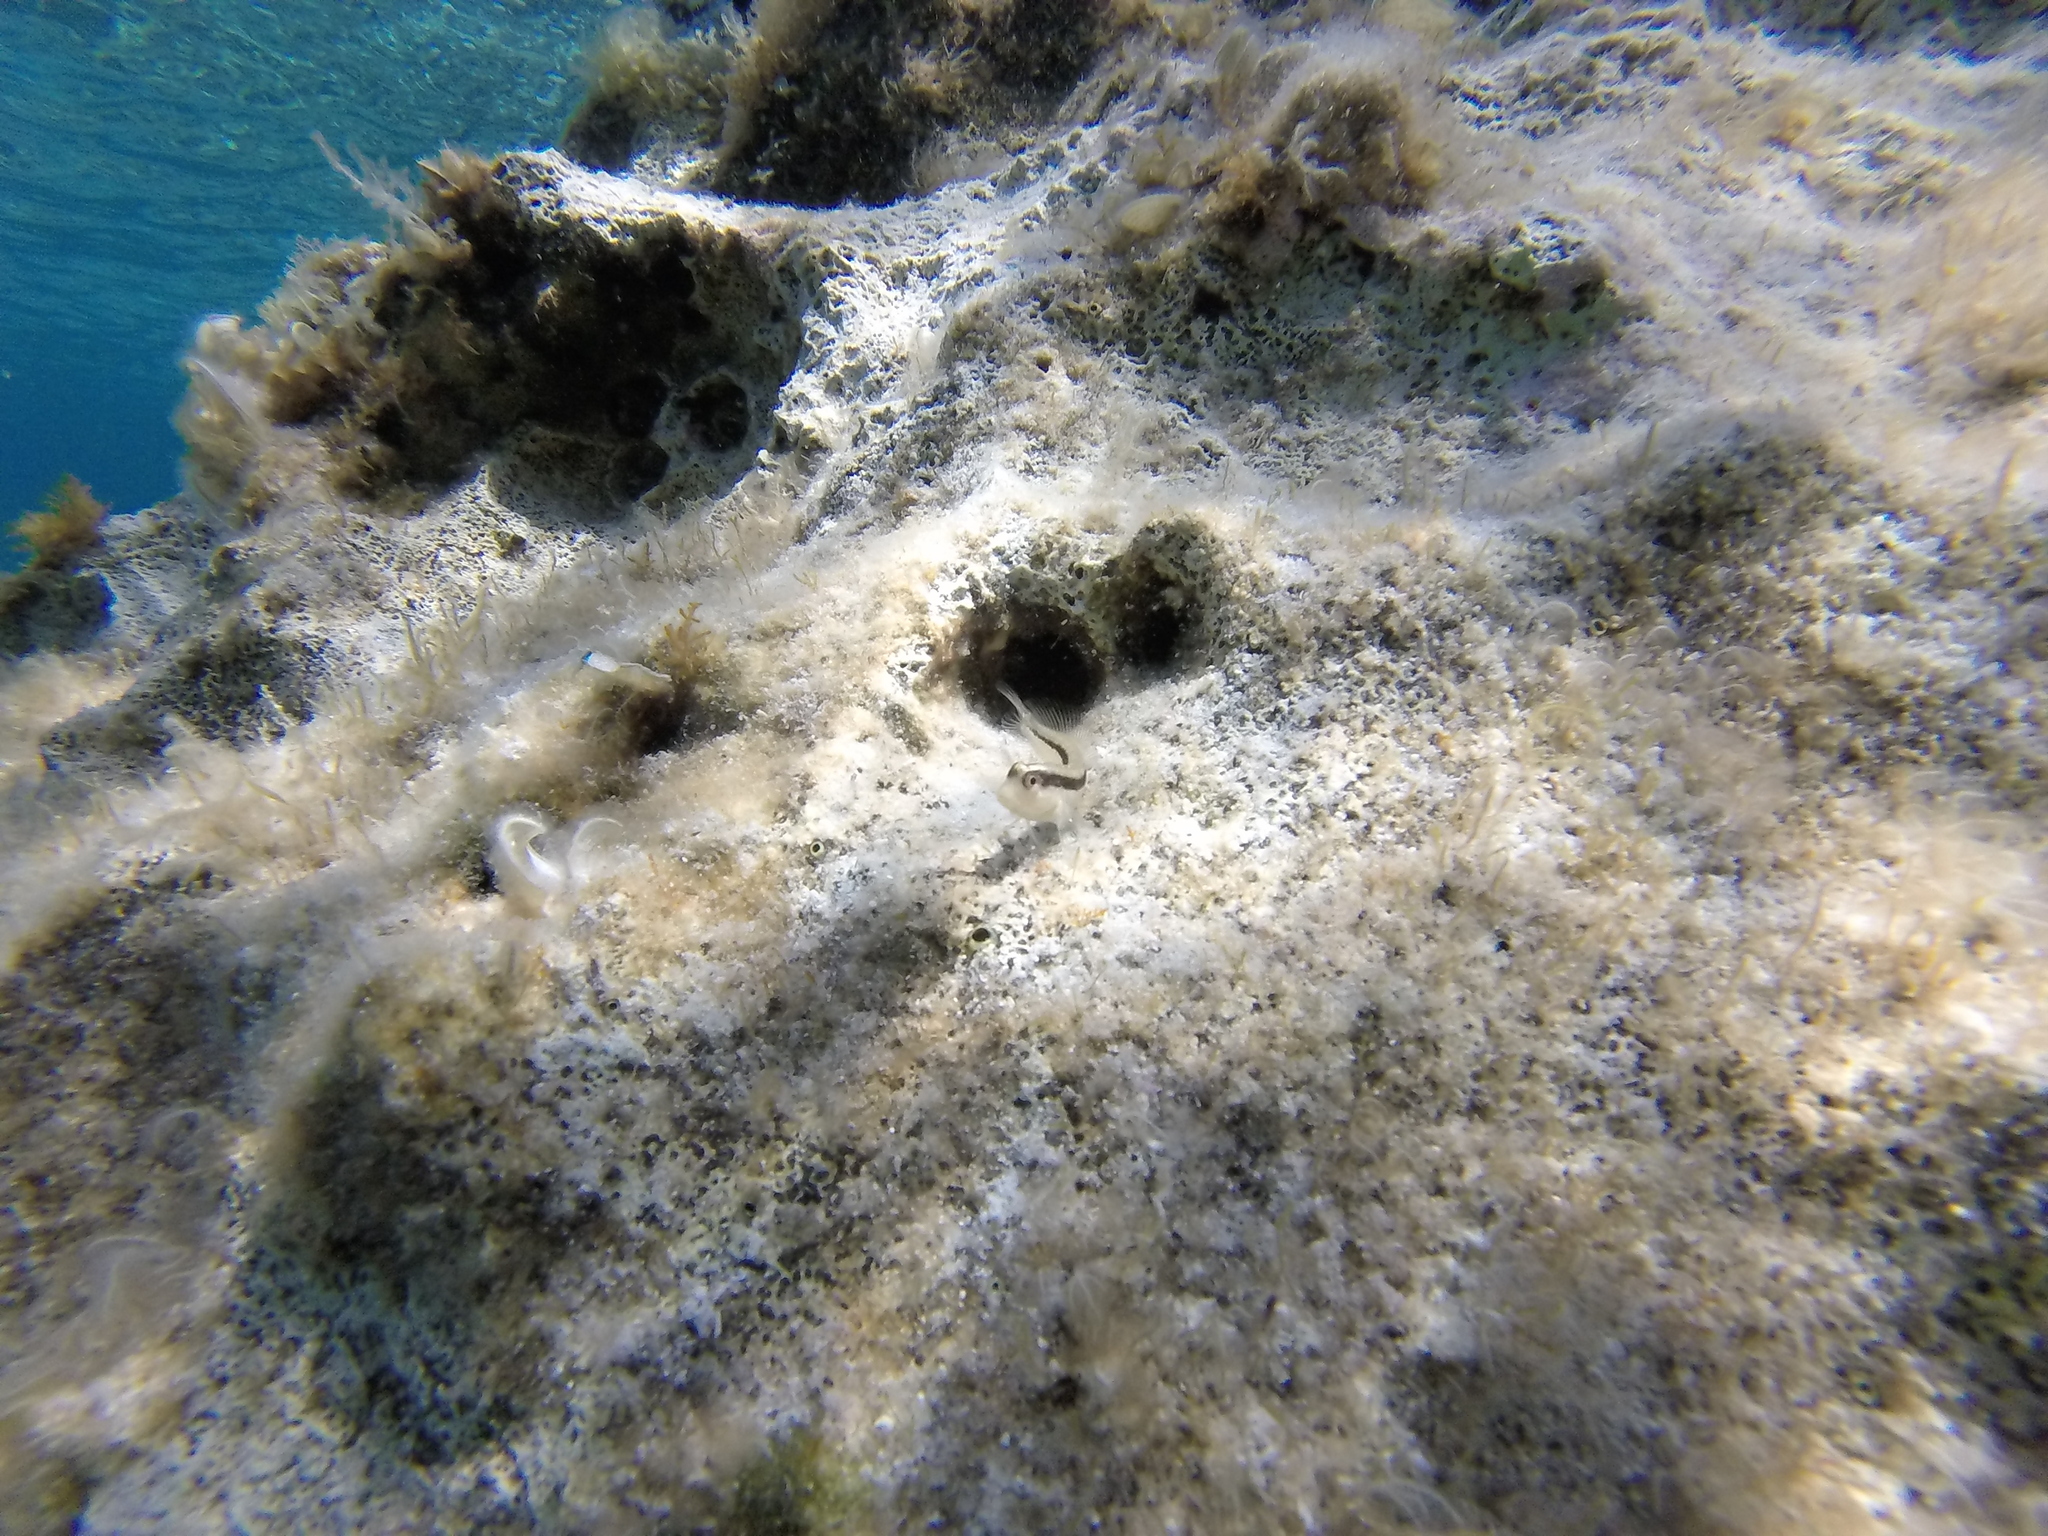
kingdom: Animalia
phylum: Chordata
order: Perciformes
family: Blenniidae
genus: Parablennius
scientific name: Parablennius rouxi
